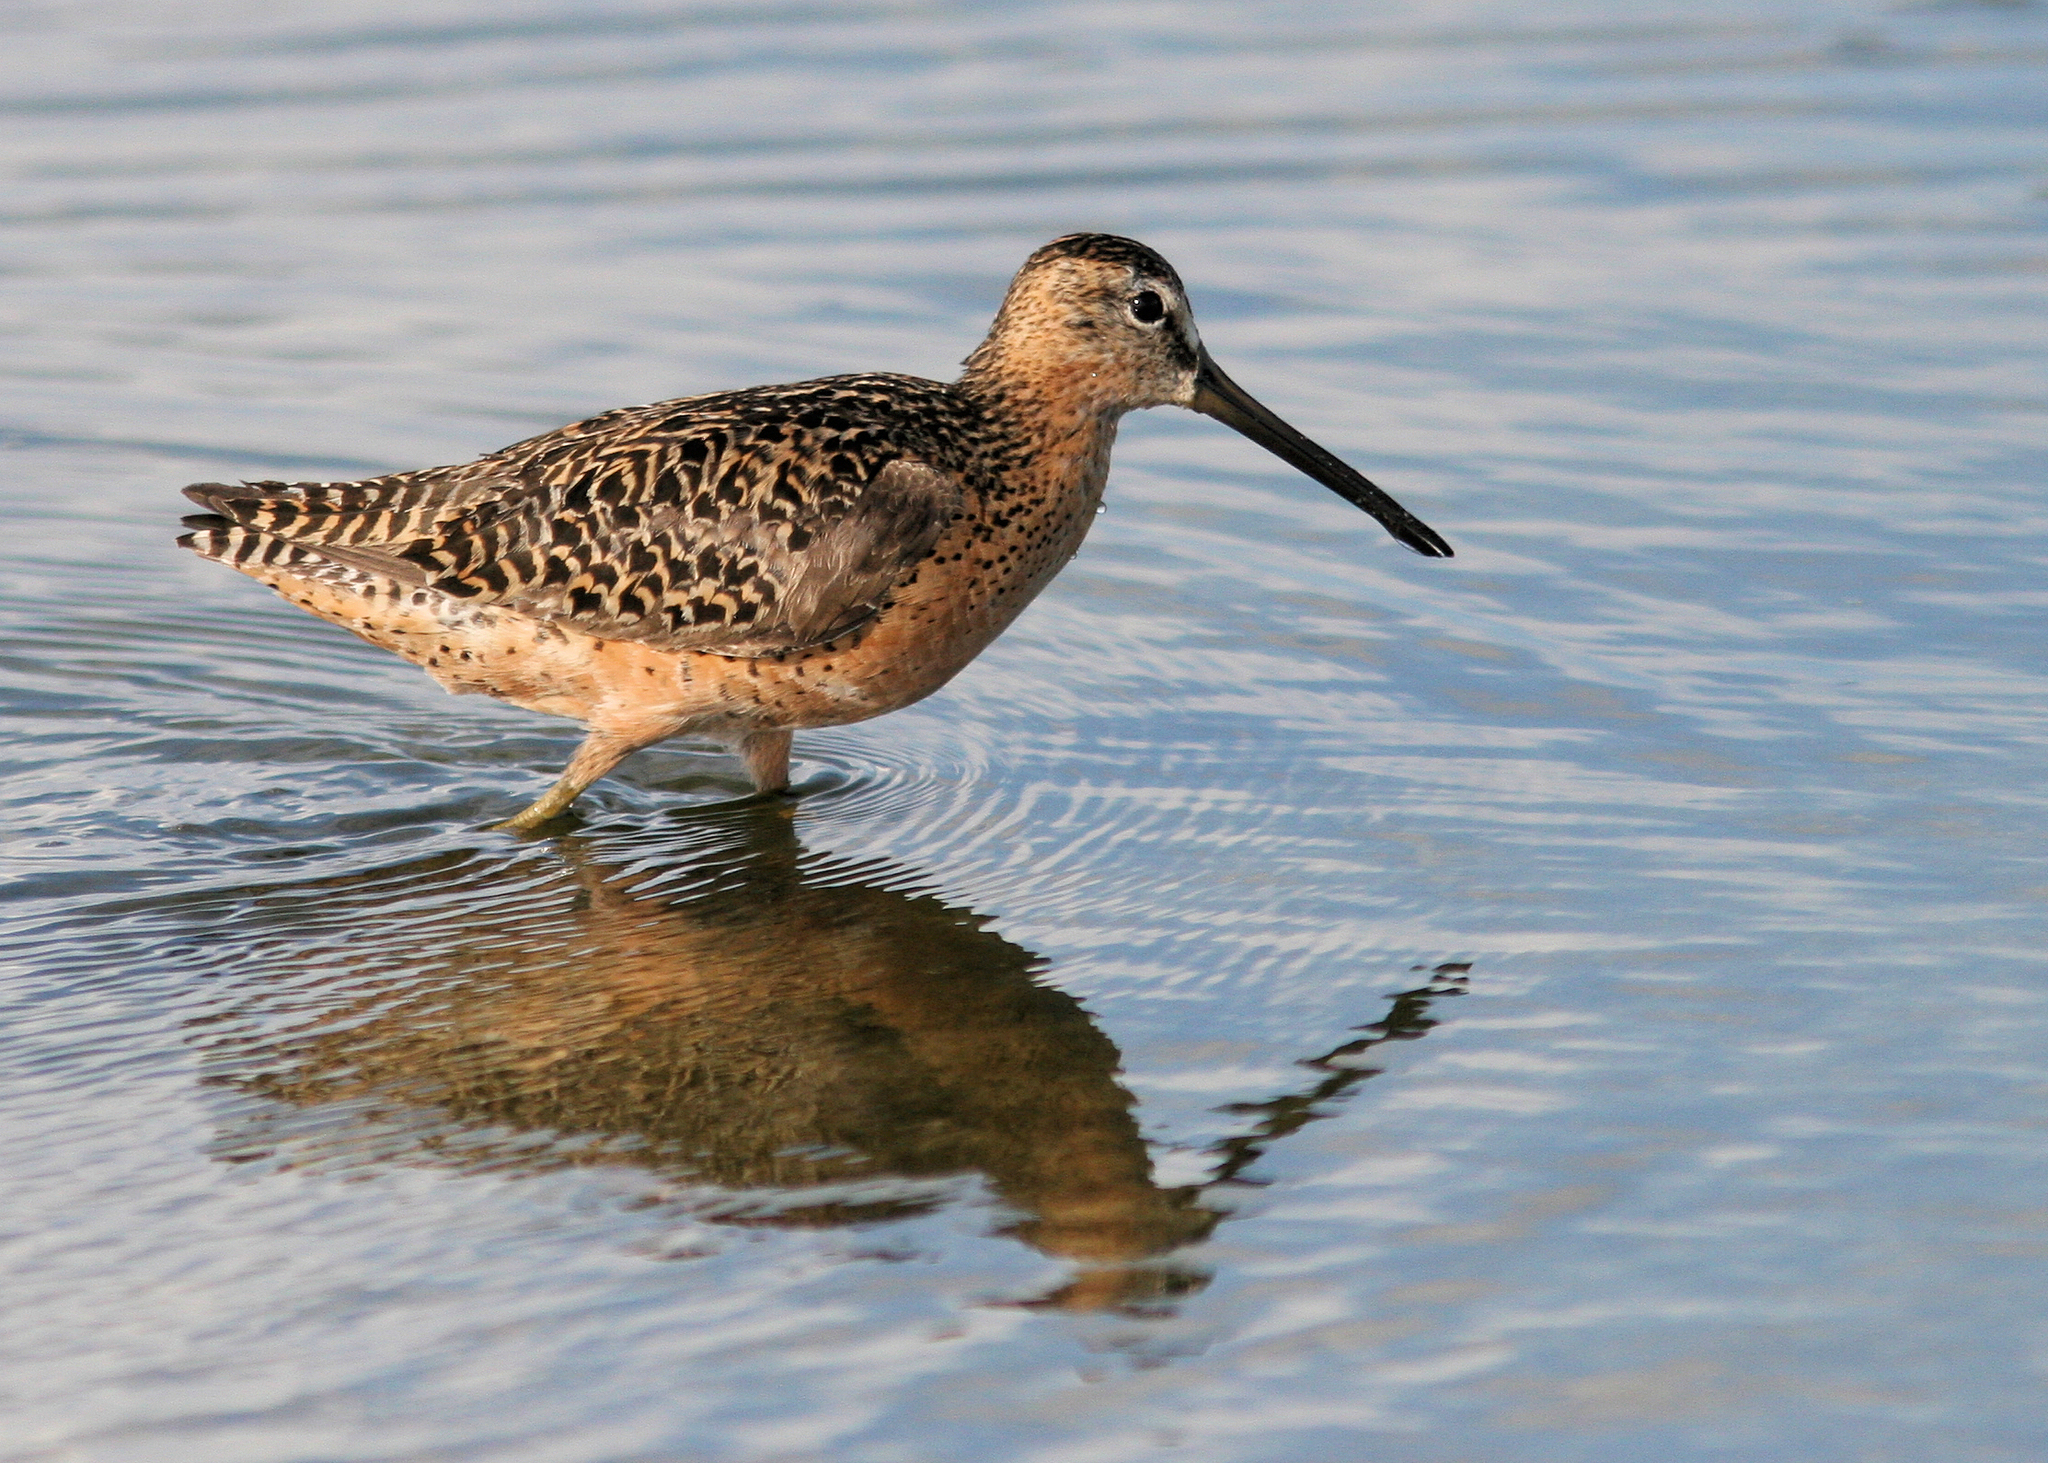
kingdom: Animalia
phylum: Chordata
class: Aves
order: Charadriiformes
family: Scolopacidae
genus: Limnodromus
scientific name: Limnodromus griseus
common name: Short-billed dowitcher
